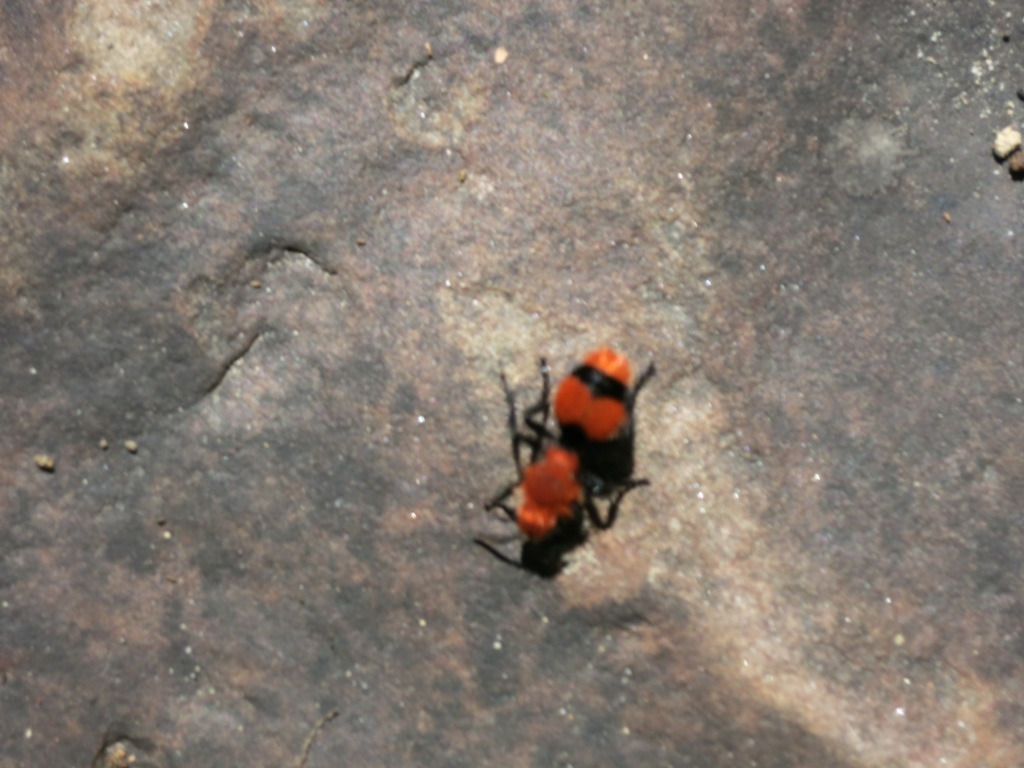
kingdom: Animalia
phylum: Arthropoda
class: Insecta
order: Hymenoptera
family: Mutillidae
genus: Dasymutilla
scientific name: Dasymutilla occidentalis
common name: Common eastern velvet ant
